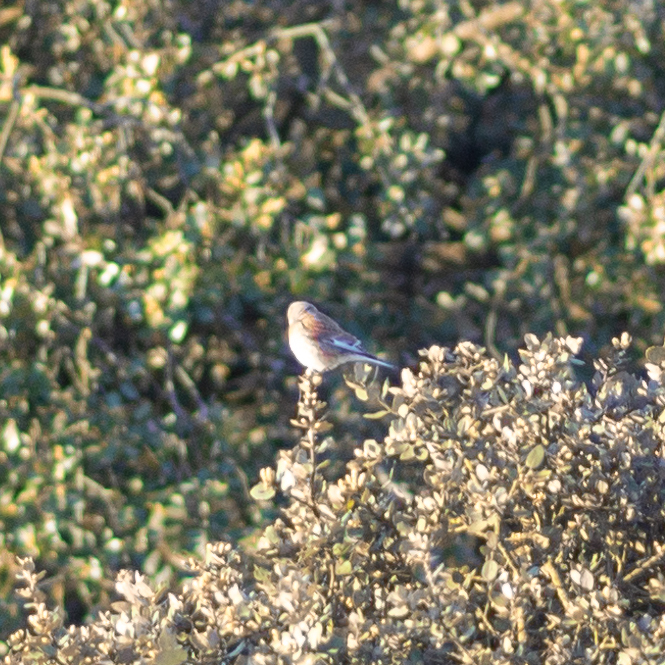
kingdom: Animalia
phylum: Chordata
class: Aves
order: Passeriformes
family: Fringillidae
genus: Linaria
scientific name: Linaria cannabina
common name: Common linnet
